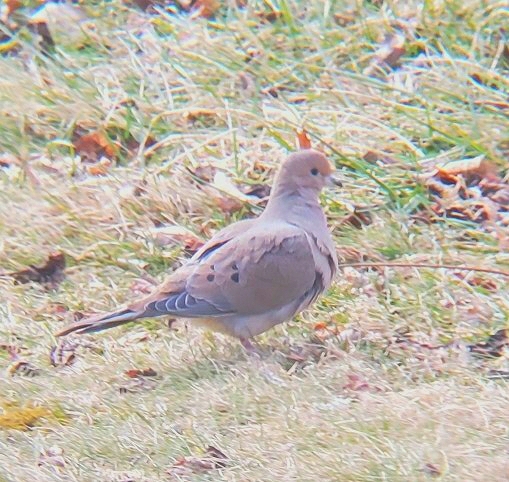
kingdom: Animalia
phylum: Chordata
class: Aves
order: Columbiformes
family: Columbidae
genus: Zenaida
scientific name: Zenaida macroura
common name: Mourning dove
